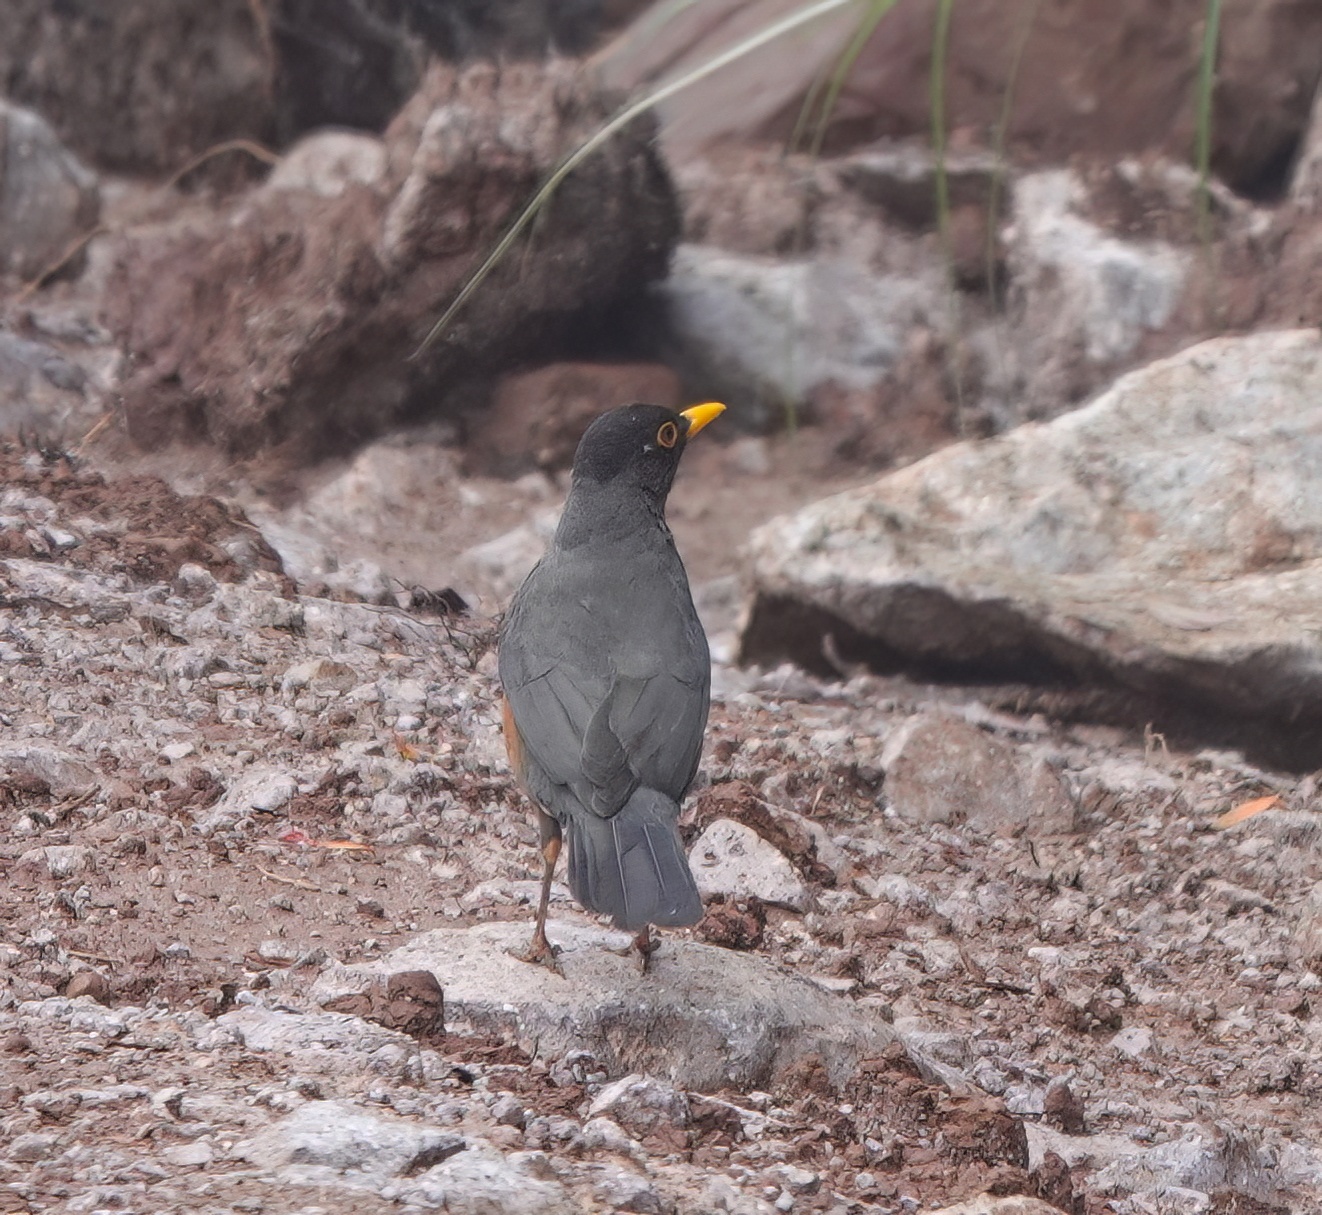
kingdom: Animalia
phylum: Chordata
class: Aves
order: Passeriformes
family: Turdidae
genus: Turdus
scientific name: Turdus fulviventris
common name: Chestnut-bellied thrush
